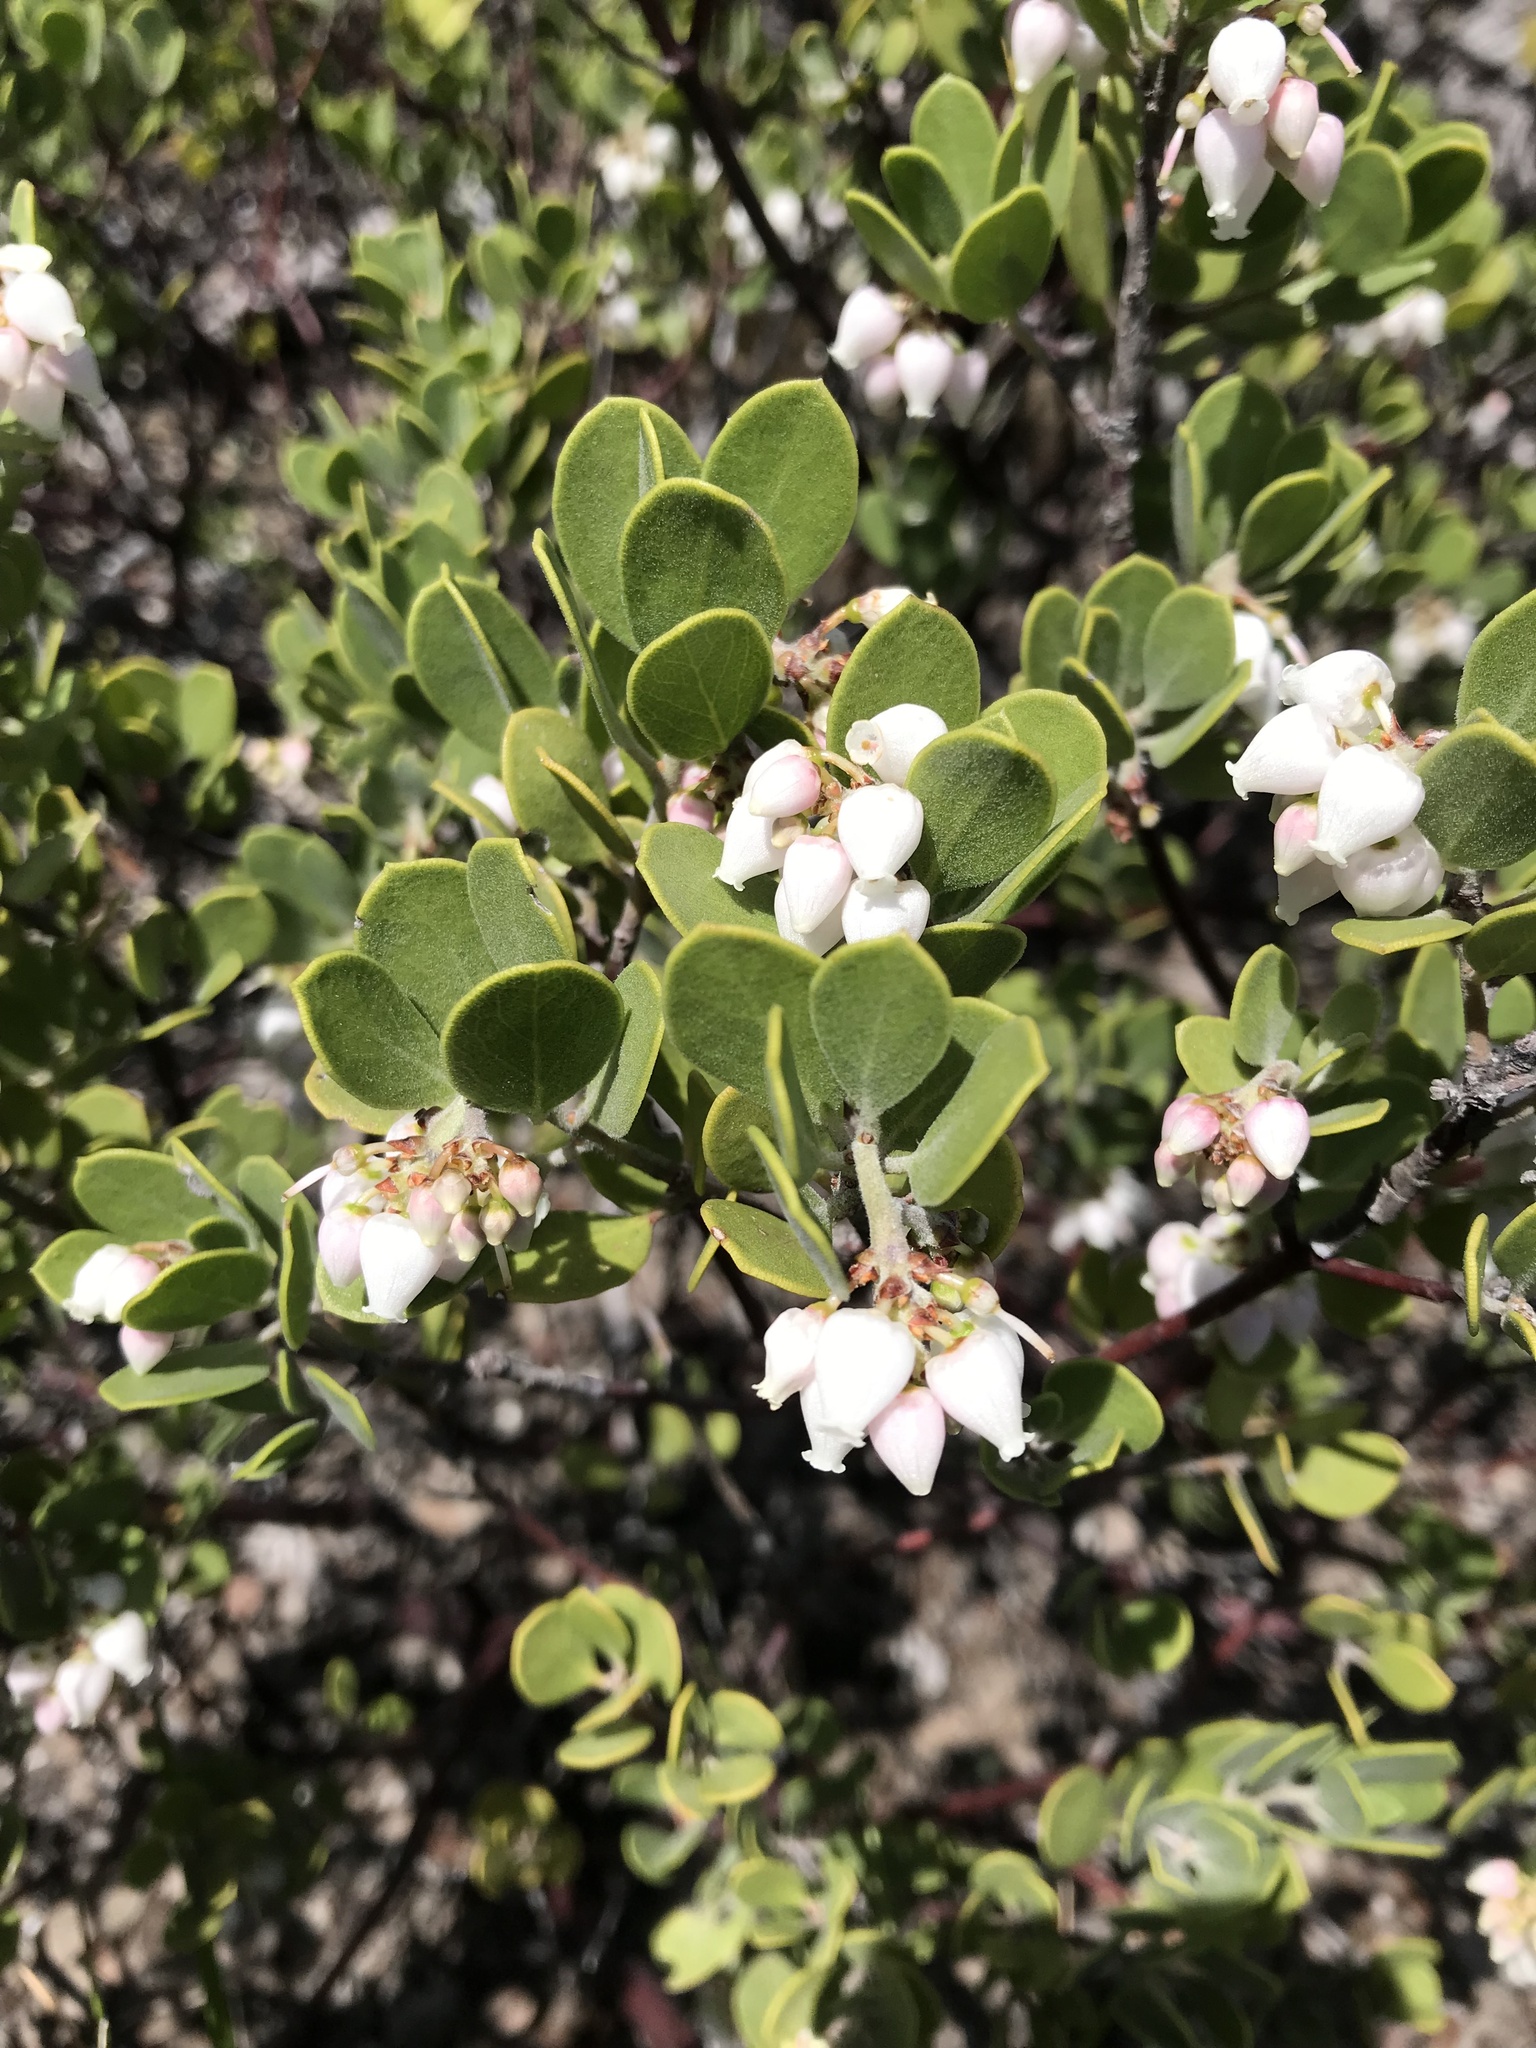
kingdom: Plantae
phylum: Tracheophyta
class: Magnoliopsida
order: Ericales
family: Ericaceae
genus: Arctostaphylos
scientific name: Arctostaphylos montana
